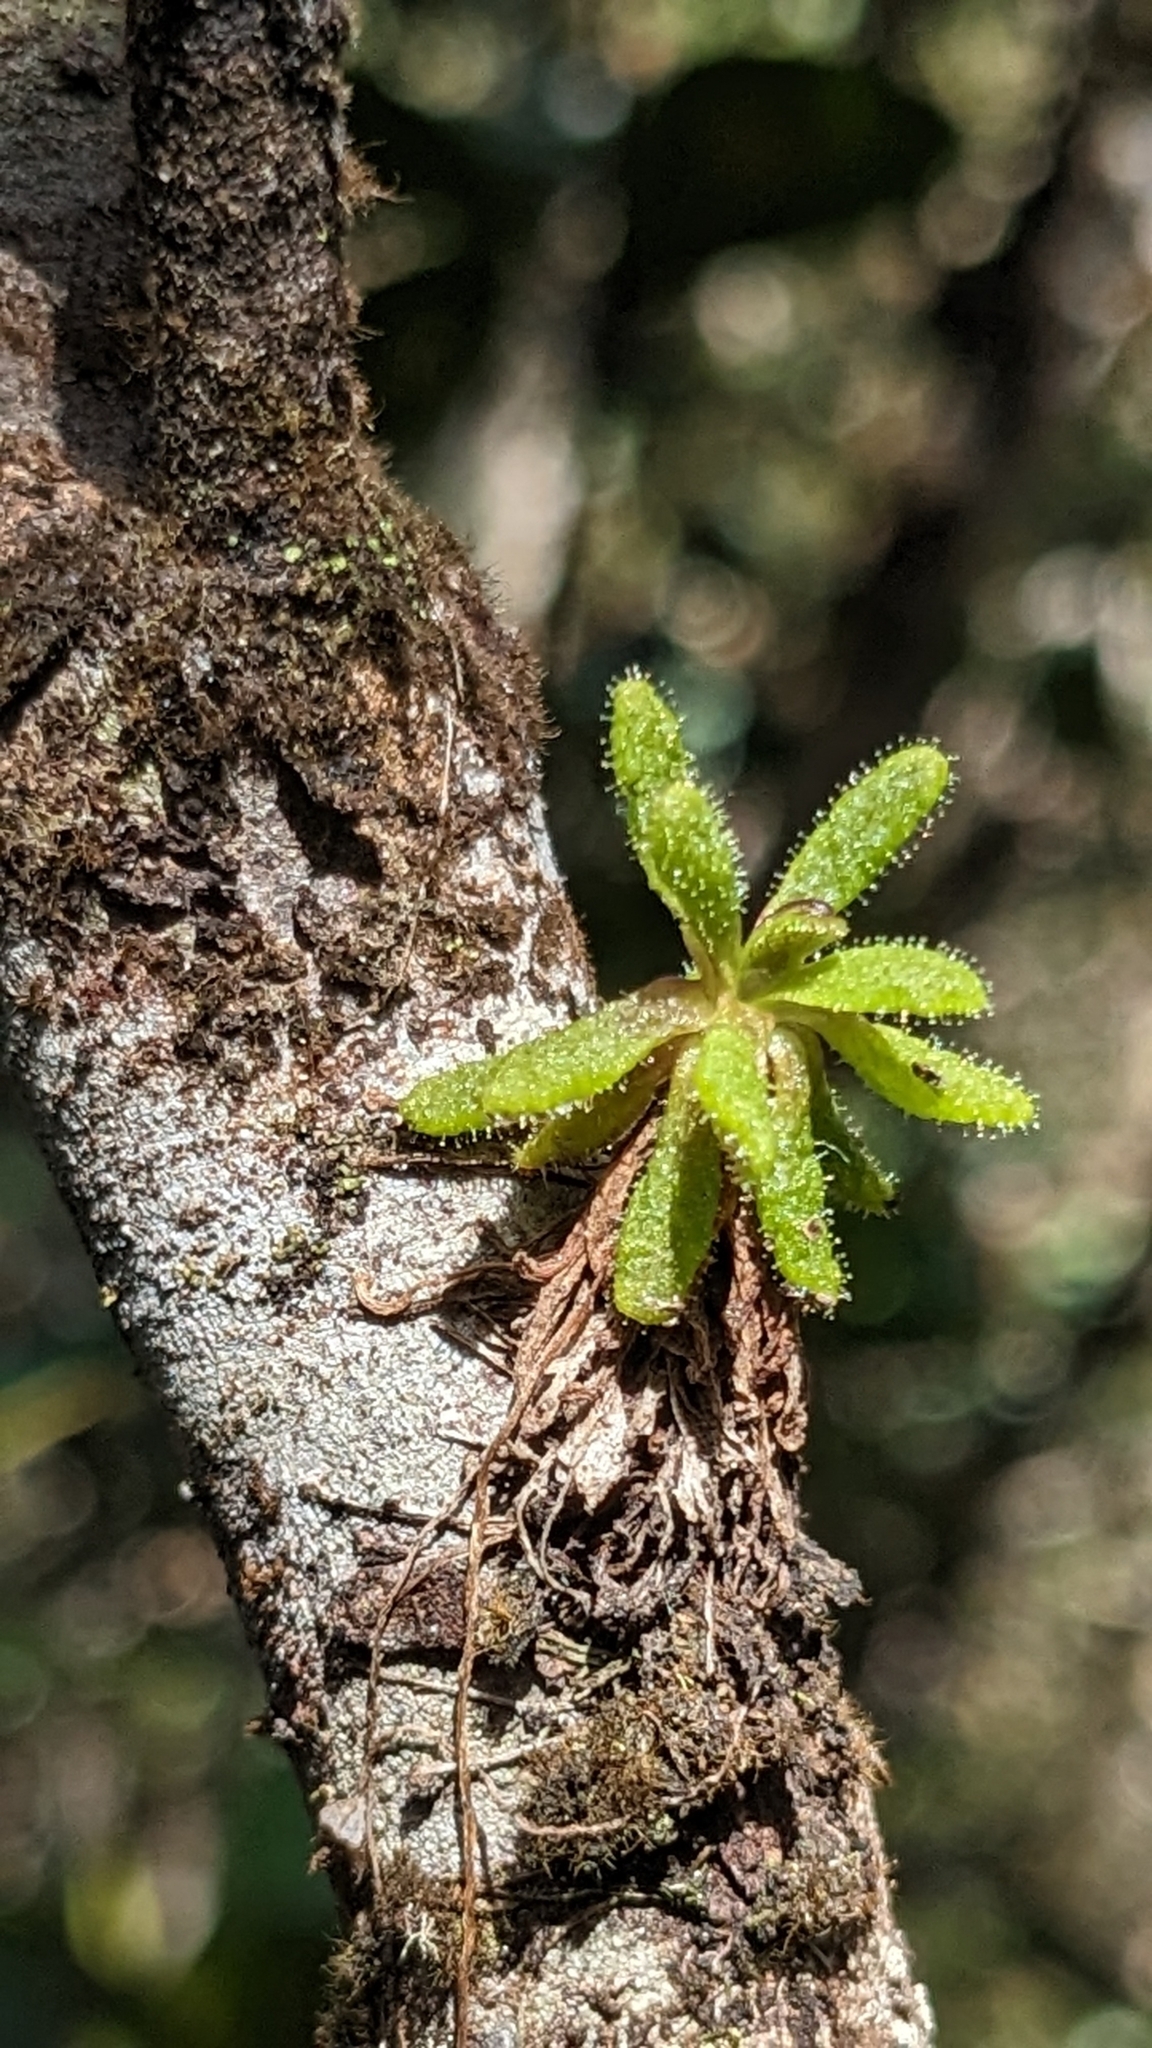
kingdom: Plantae
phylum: Tracheophyta
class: Magnoliopsida
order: Lamiales
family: Lentibulariaceae
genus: Pinguicula
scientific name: Pinguicula lignicola
